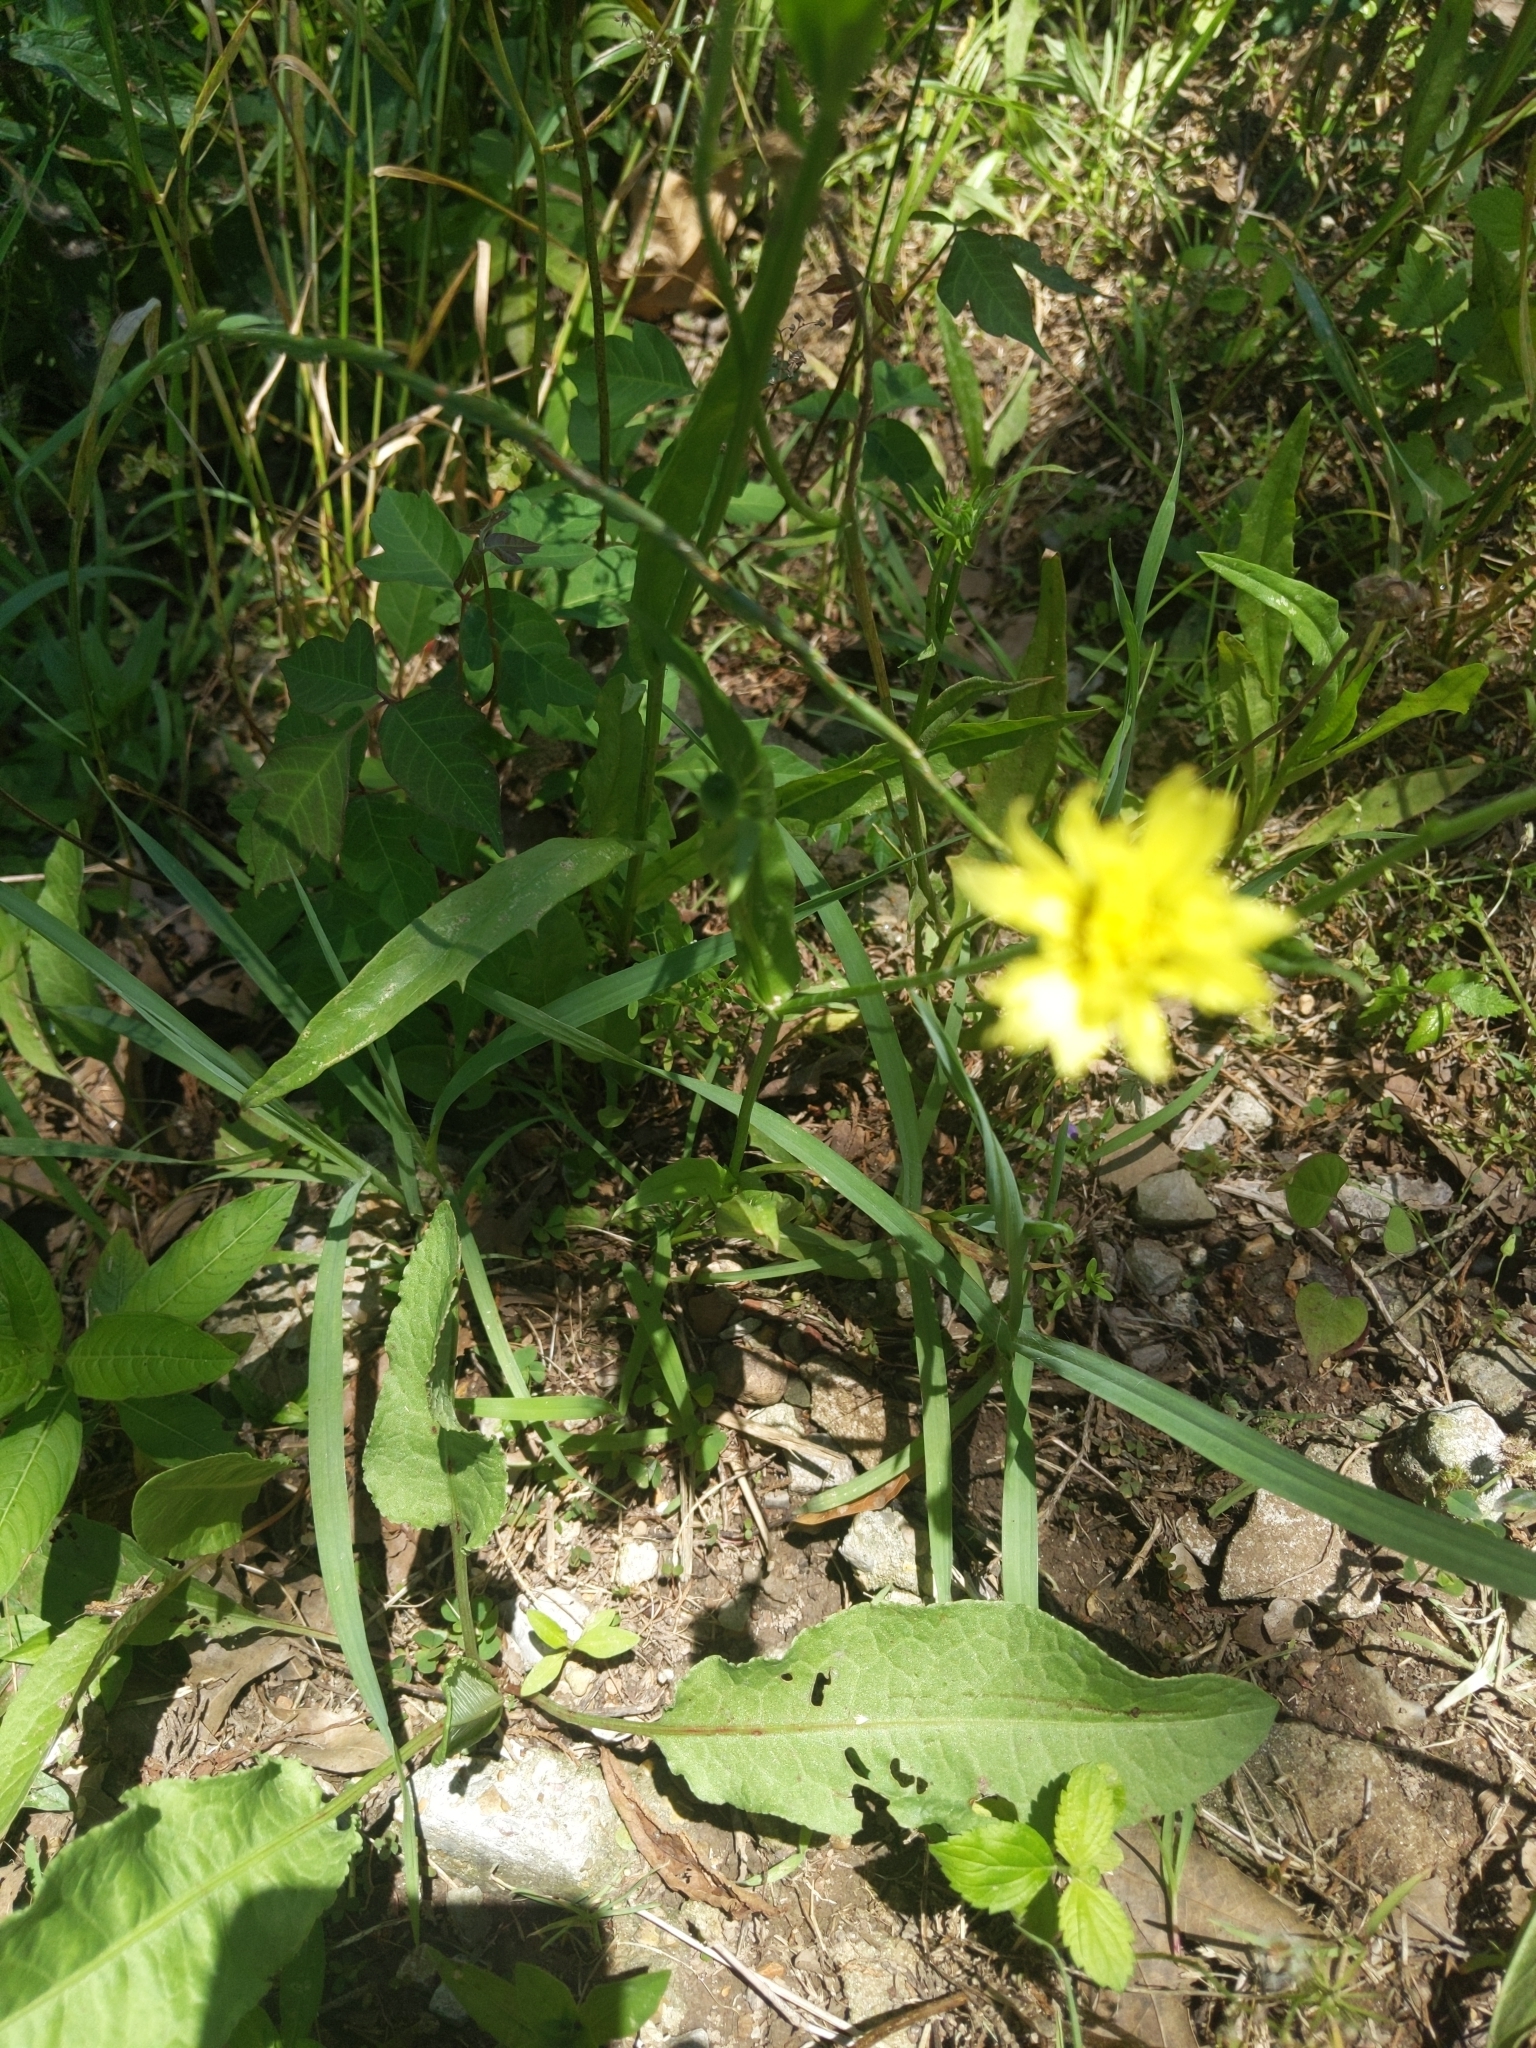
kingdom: Plantae
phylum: Tracheophyta
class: Magnoliopsida
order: Asterales
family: Asteraceae
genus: Pyrrhopappus
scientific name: Pyrrhopappus carolinianus
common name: Carolina desert-chicory
